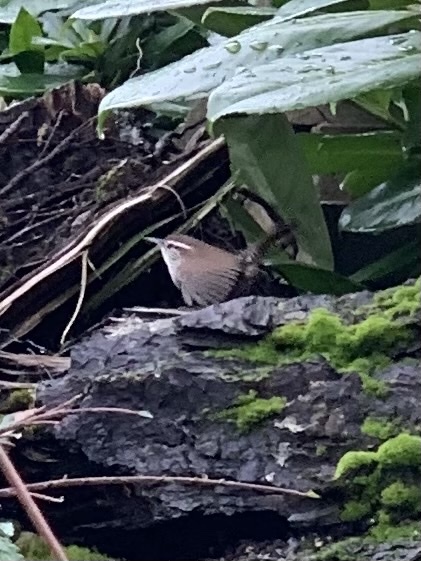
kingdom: Animalia
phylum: Chordata
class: Aves
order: Passeriformes
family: Troglodytidae
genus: Thryomanes
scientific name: Thryomanes bewickii
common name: Bewick's wren
